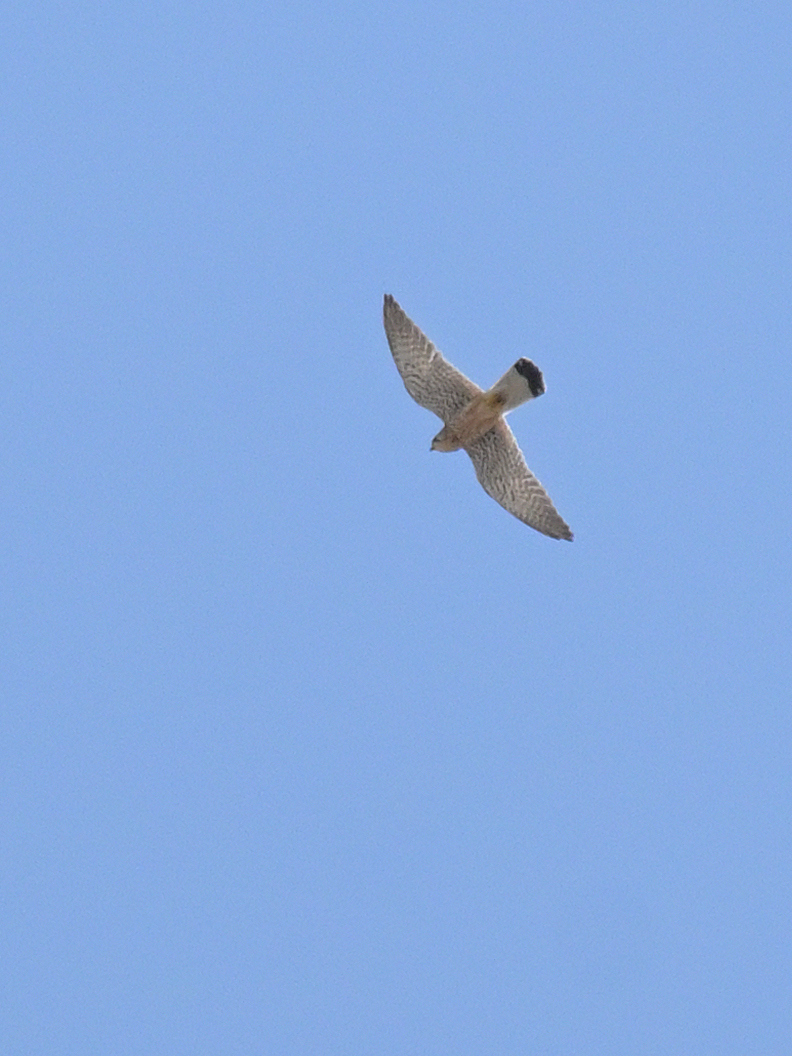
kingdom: Animalia
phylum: Chordata
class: Aves
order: Falconiformes
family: Falconidae
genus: Falco
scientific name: Falco tinnunculus
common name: Common kestrel
